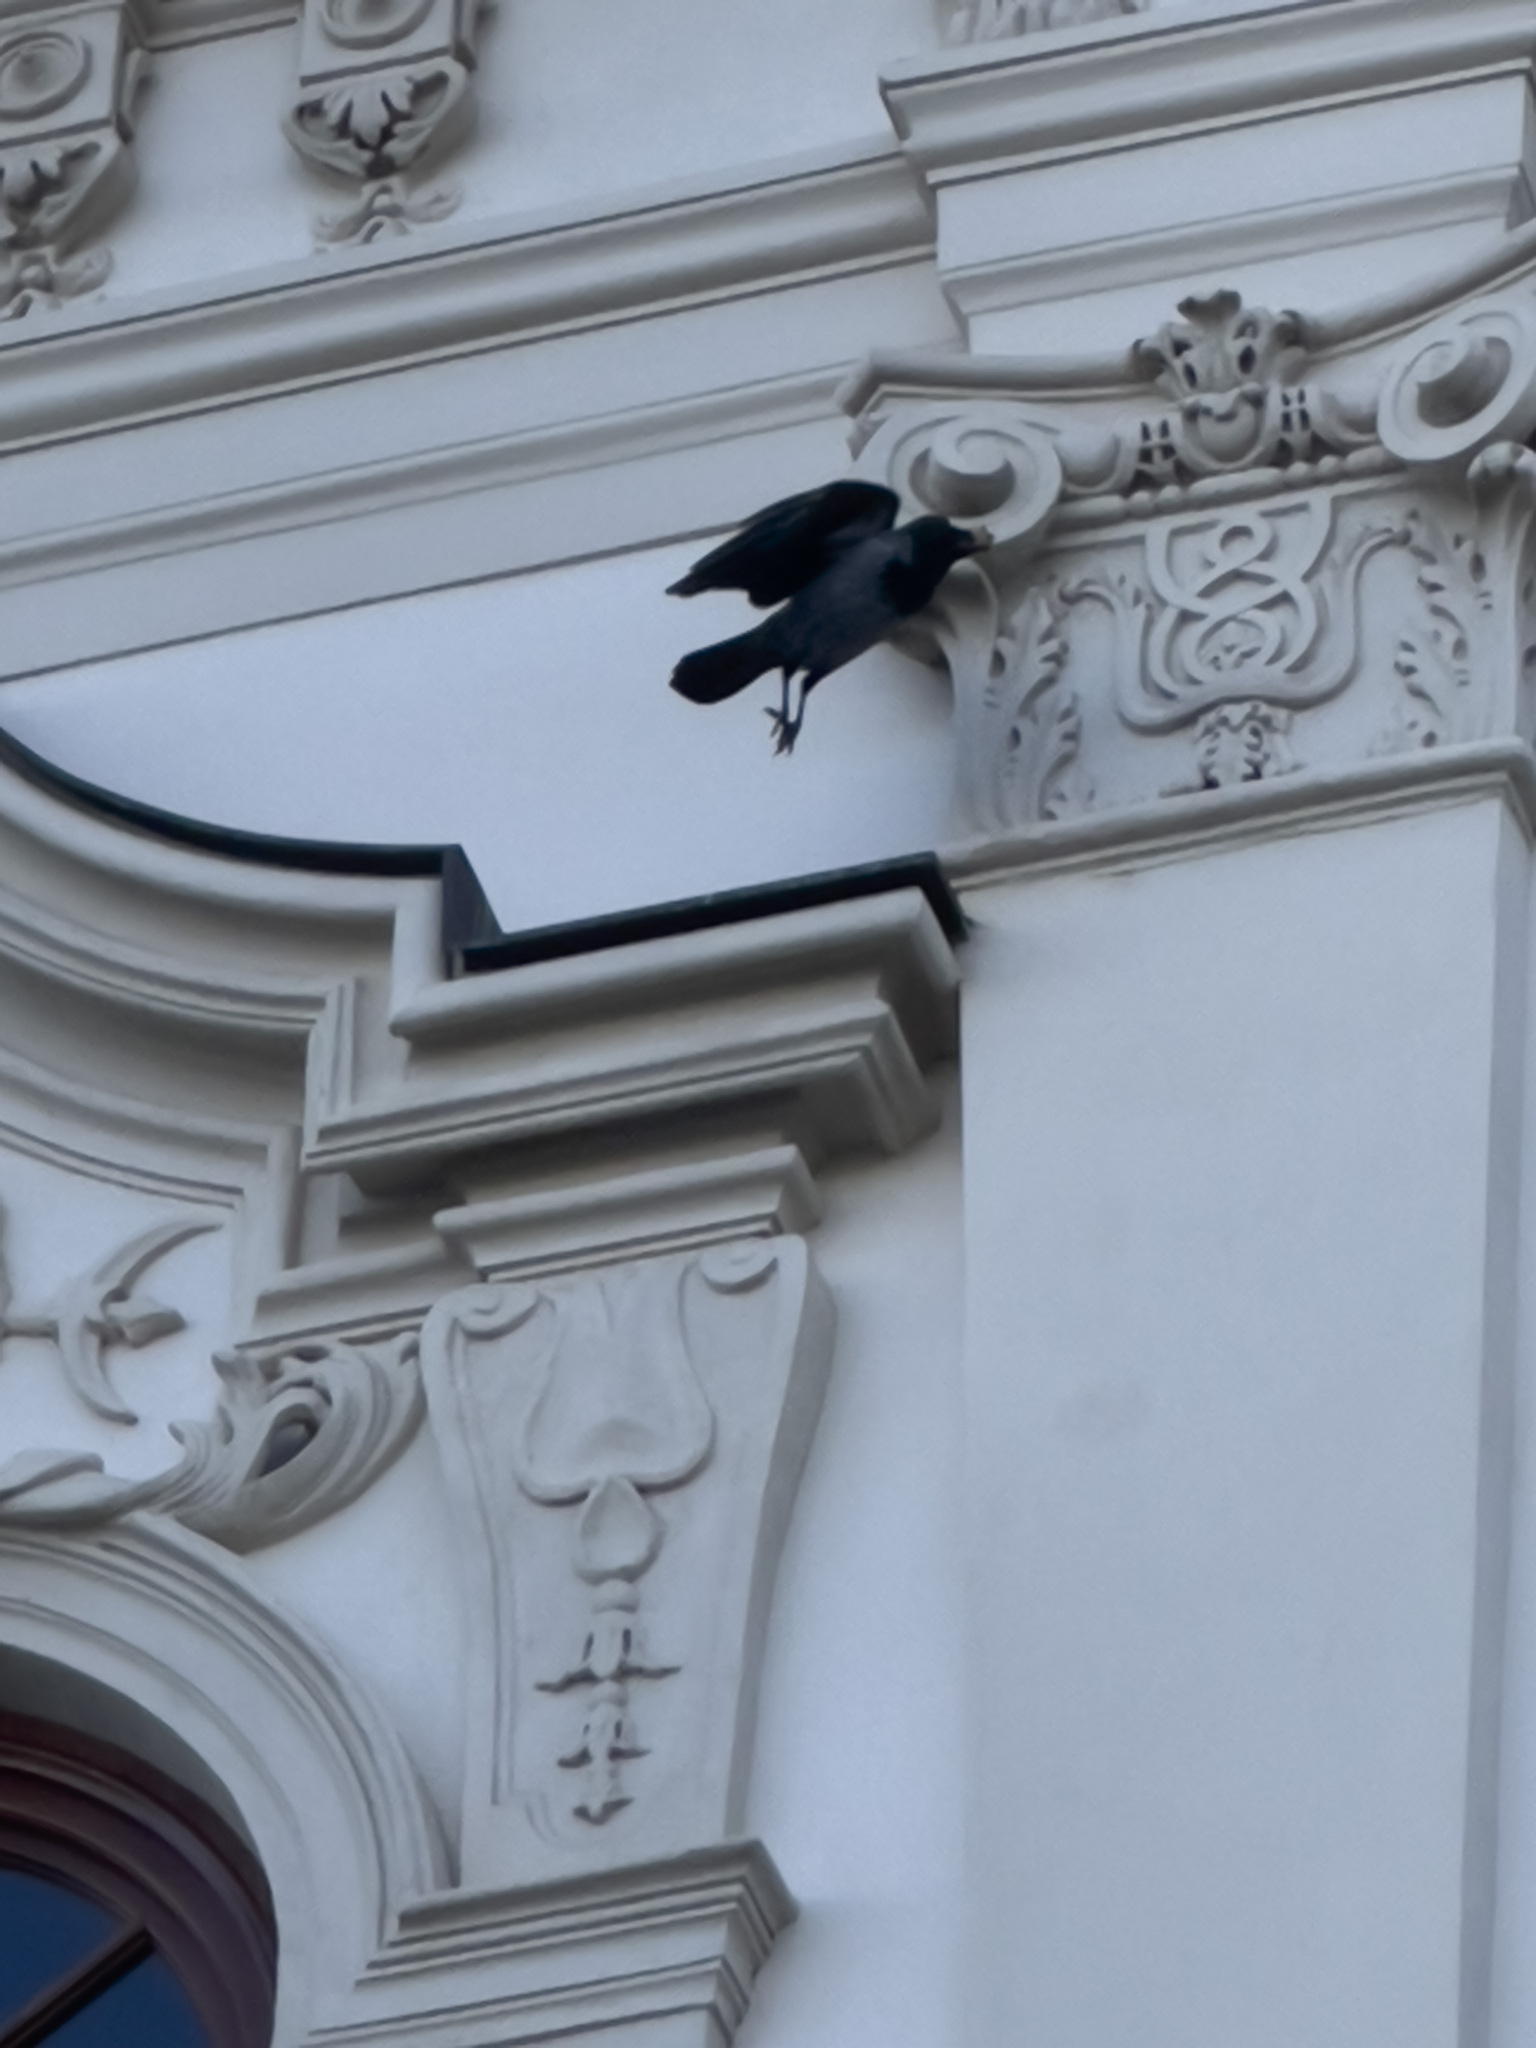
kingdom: Animalia
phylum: Chordata
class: Aves
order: Passeriformes
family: Corvidae
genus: Coloeus
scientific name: Coloeus monedula
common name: Western jackdaw
